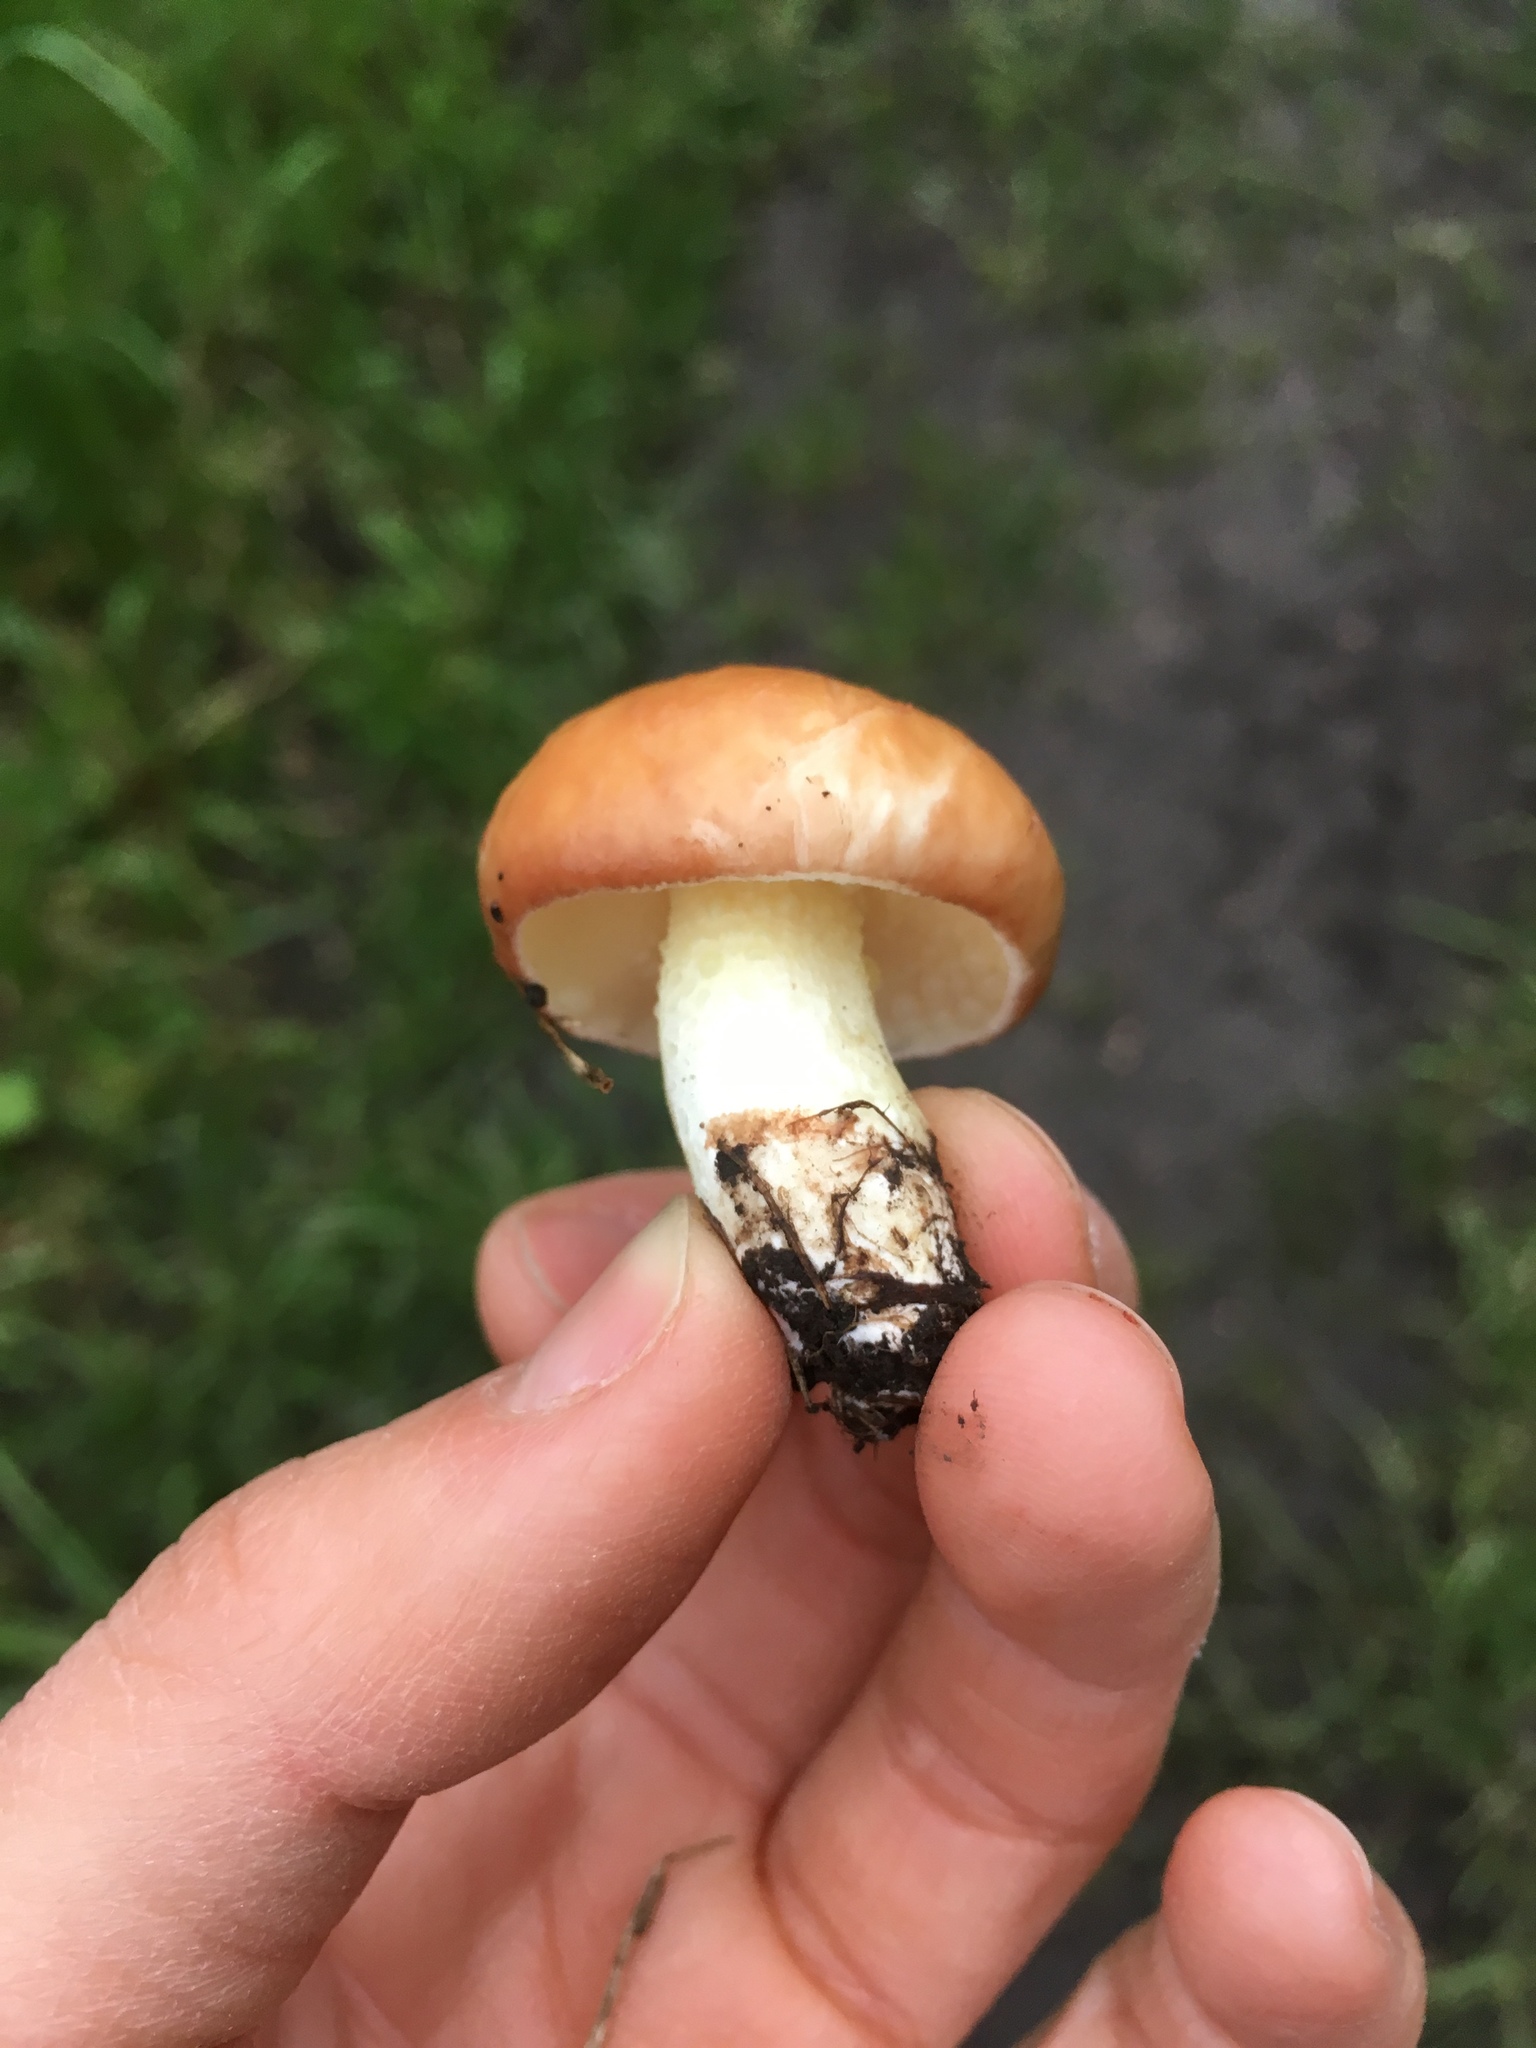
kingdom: Fungi
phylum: Basidiomycota
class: Agaricomycetes
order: Boletales
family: Suillaceae
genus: Suillus
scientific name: Suillus granulatus
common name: Weeping bolete
